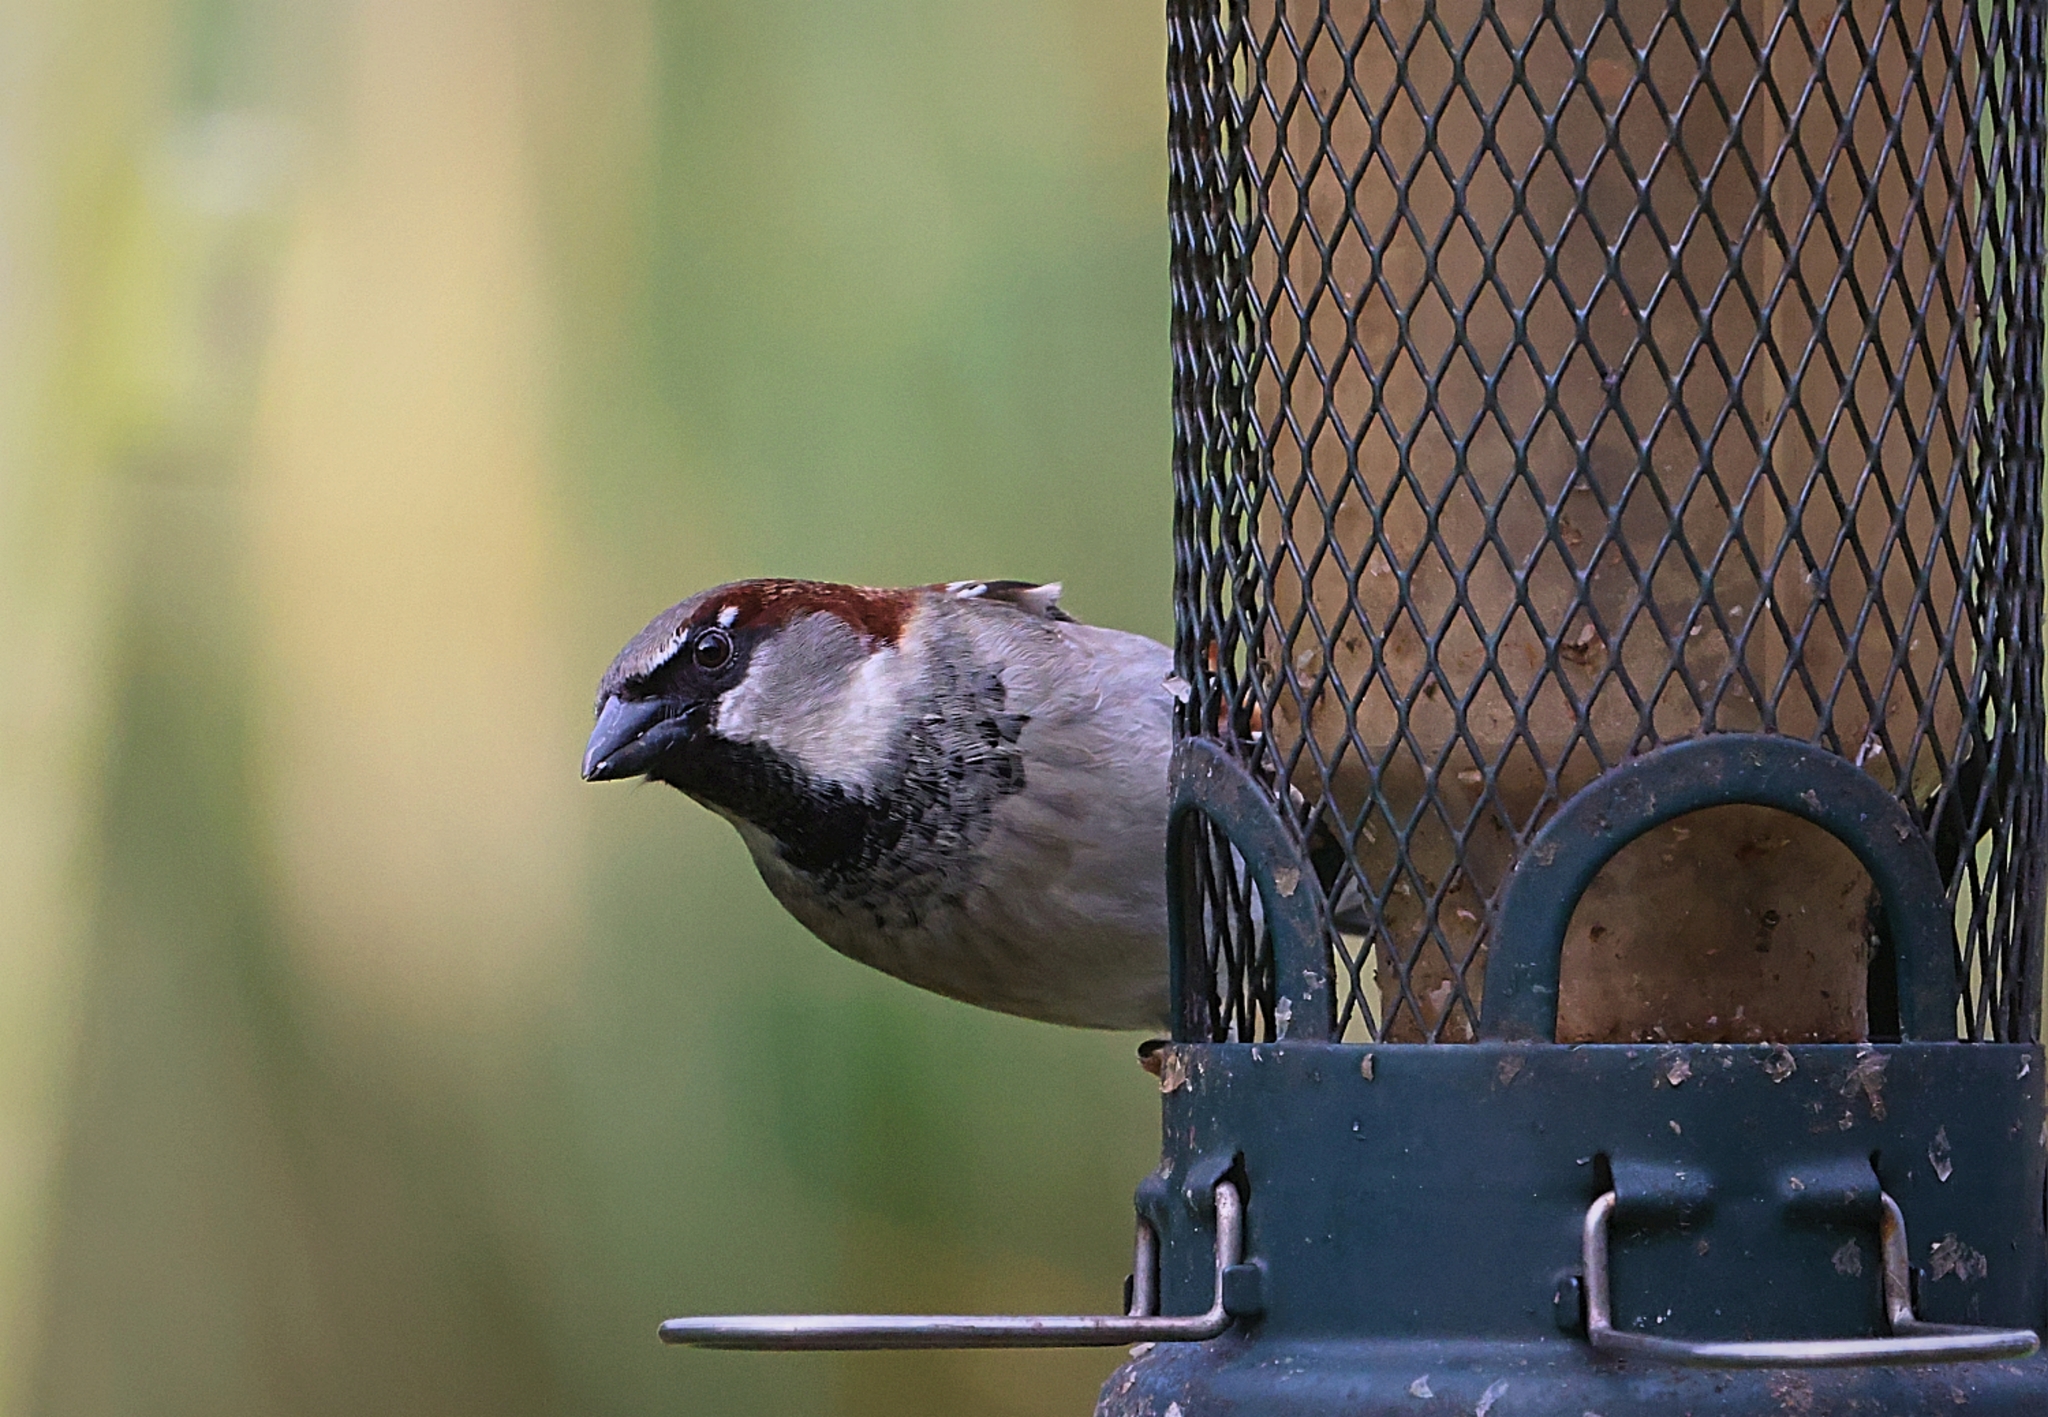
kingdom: Animalia
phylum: Chordata
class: Aves
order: Passeriformes
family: Passeridae
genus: Passer
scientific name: Passer domesticus
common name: House sparrow
